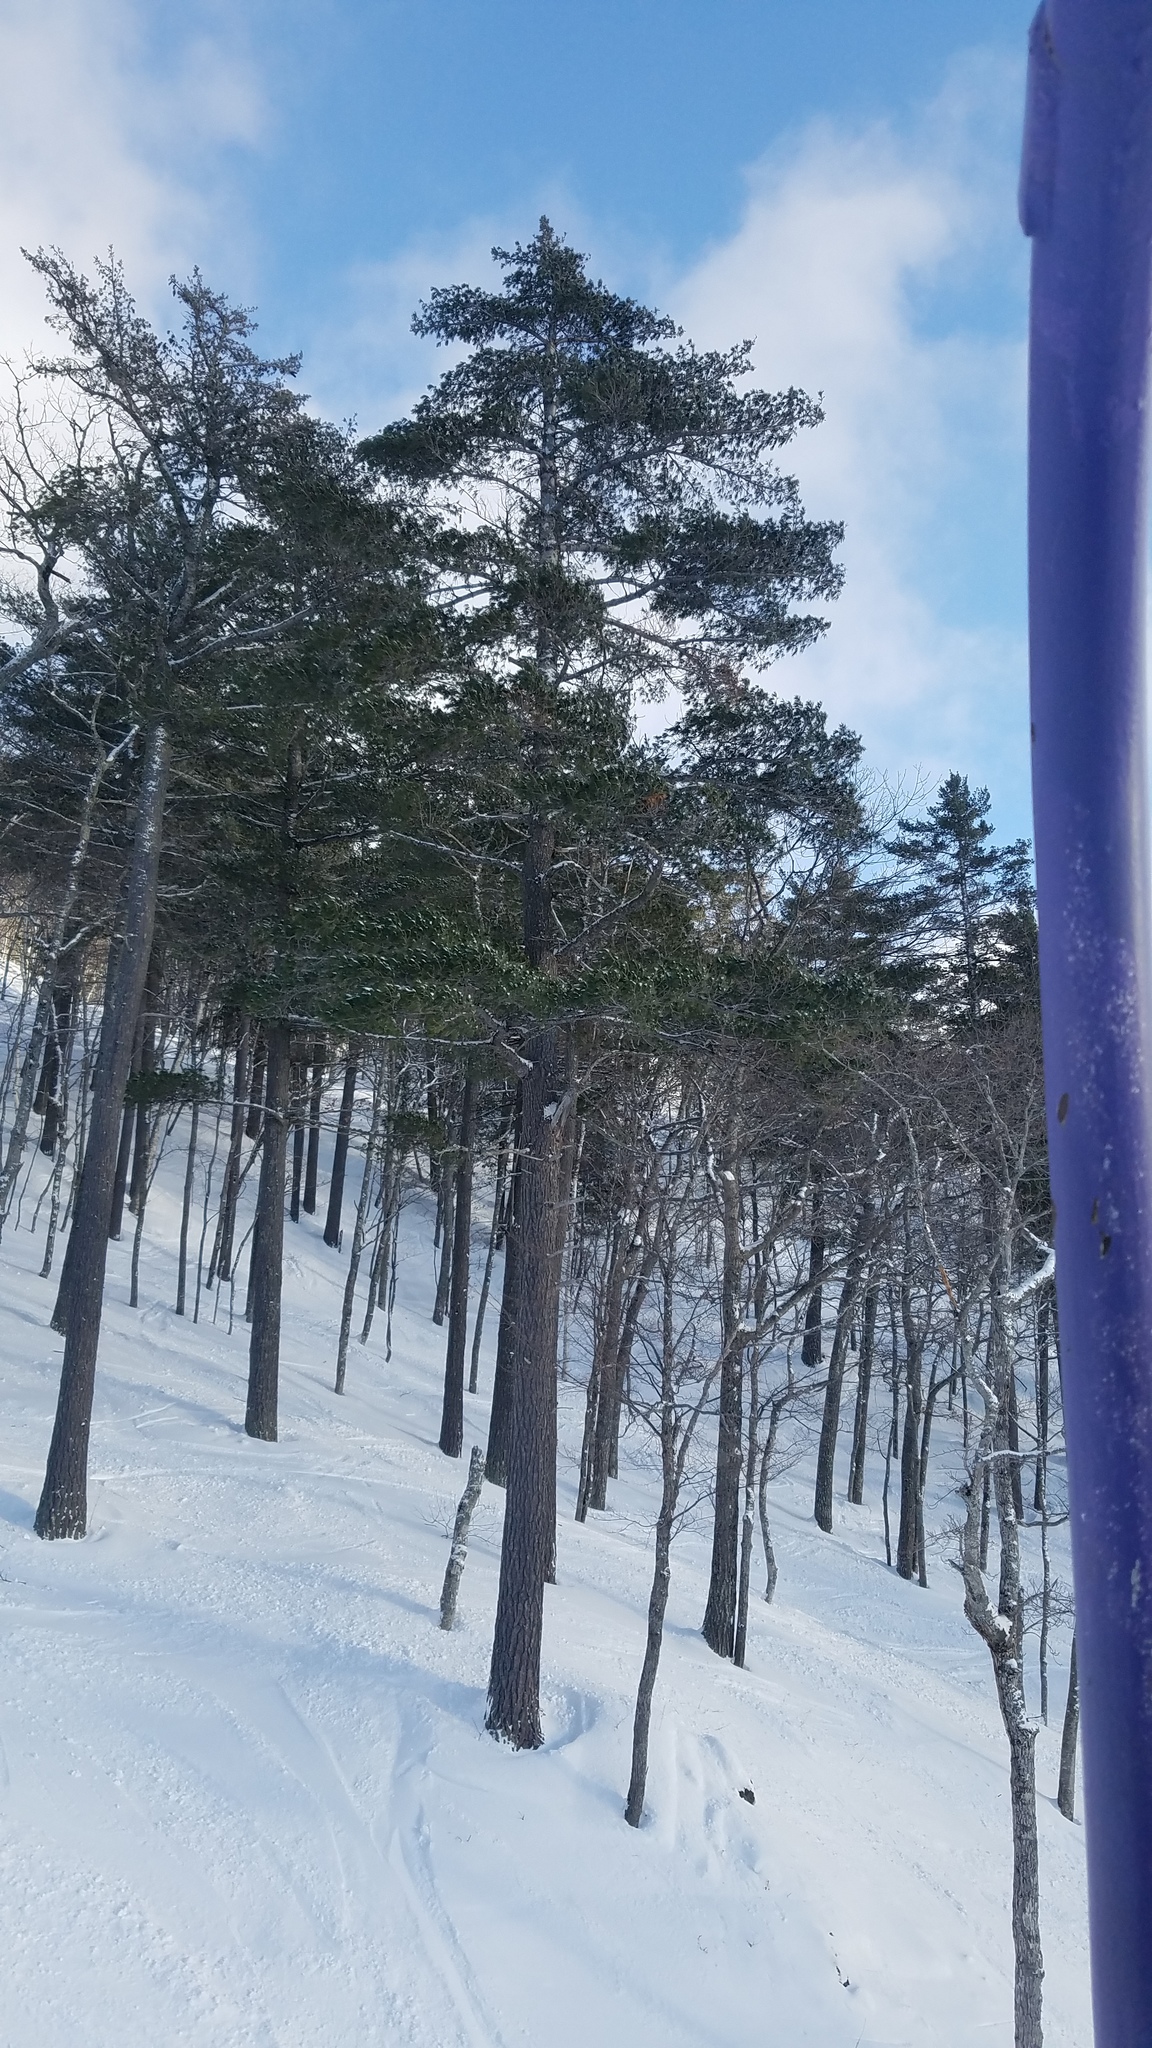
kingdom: Plantae
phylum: Tracheophyta
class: Pinopsida
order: Pinales
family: Pinaceae
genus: Pinus
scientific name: Pinus strobus
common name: Weymouth pine
